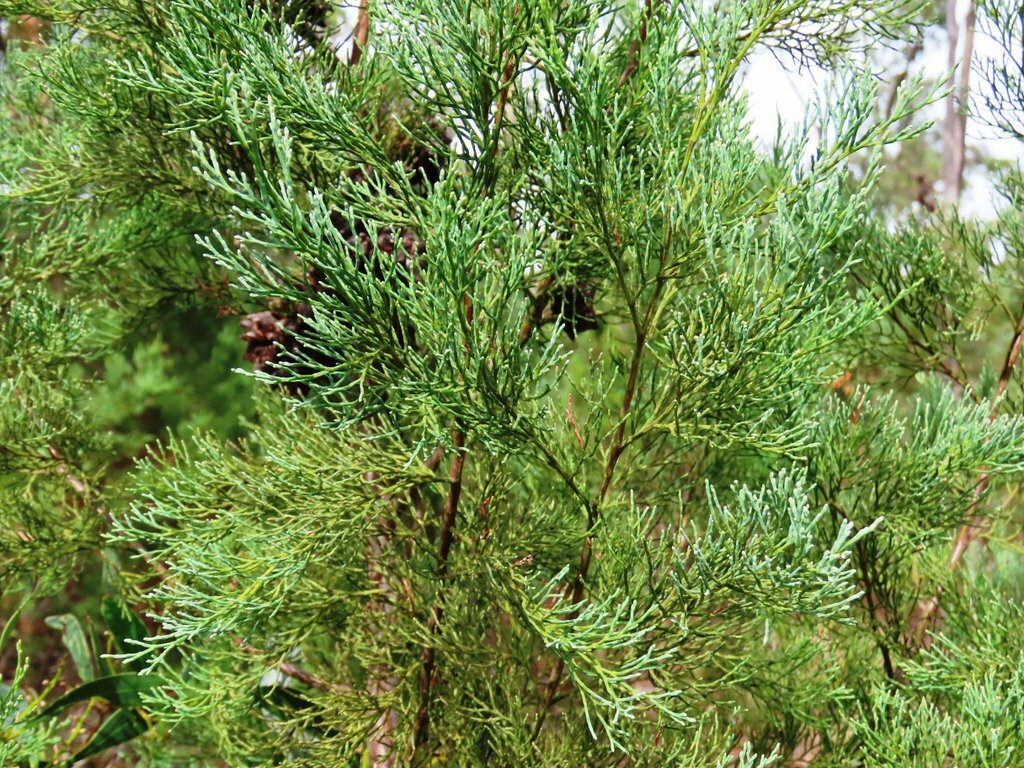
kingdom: Plantae
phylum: Tracheophyta
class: Pinopsida
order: Pinales
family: Cupressaceae
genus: Callitris
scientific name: Callitris rhomboidea
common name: Illawara mountain pine
